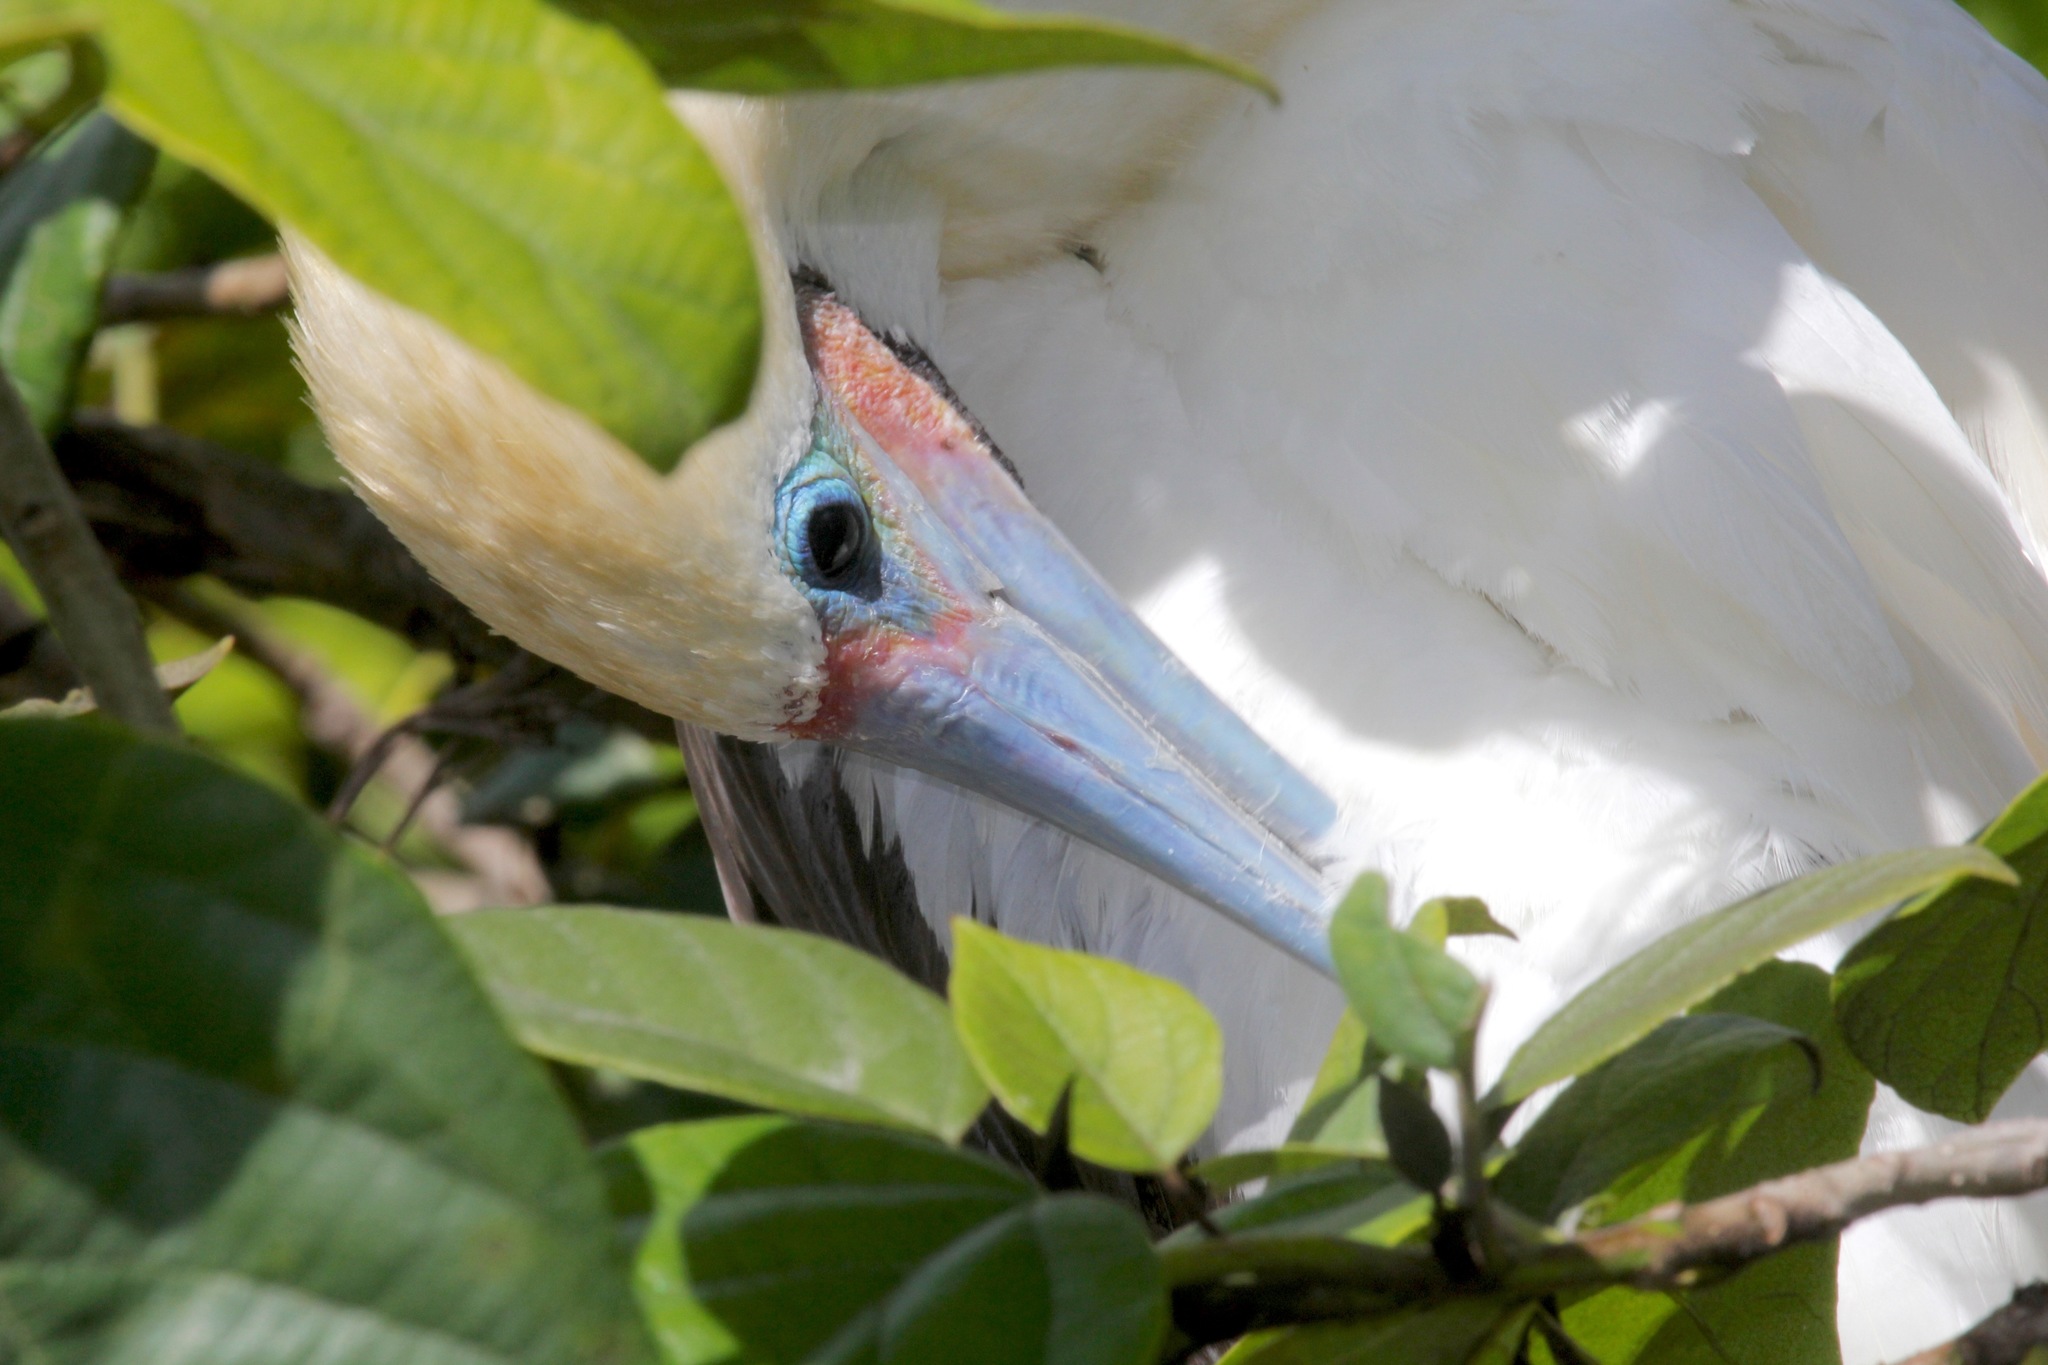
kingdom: Animalia
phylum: Chordata
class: Aves
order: Suliformes
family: Sulidae
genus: Sula
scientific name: Sula sula
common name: Red-footed booby
